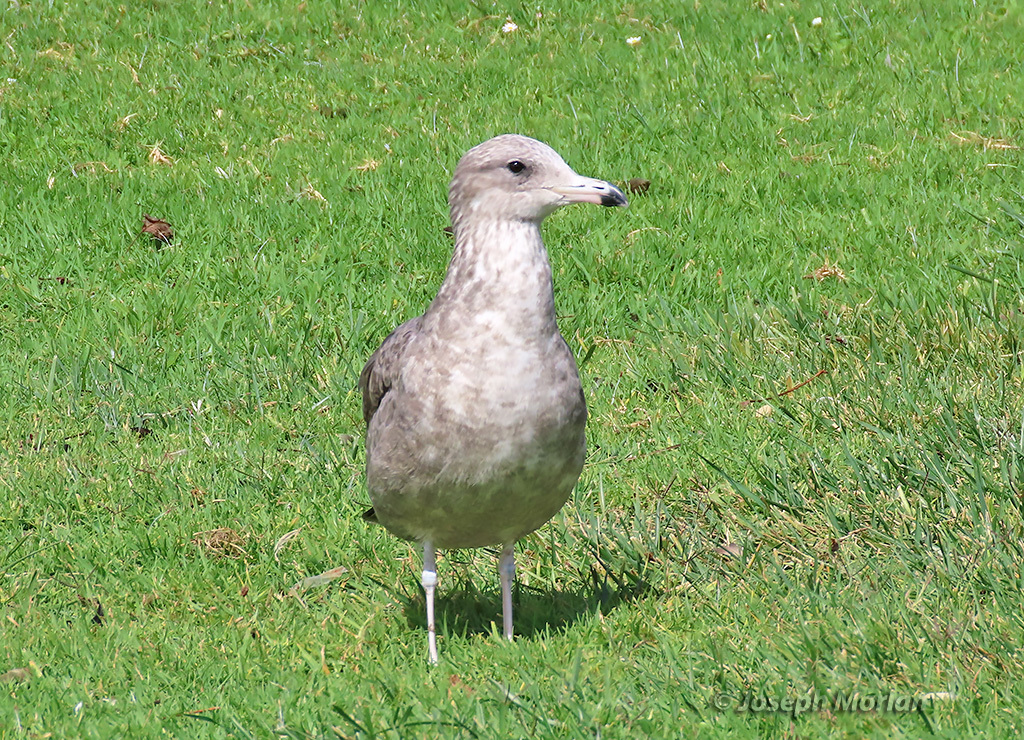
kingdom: Animalia
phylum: Chordata
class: Aves
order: Charadriiformes
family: Laridae
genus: Larus
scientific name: Larus californicus
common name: California gull
